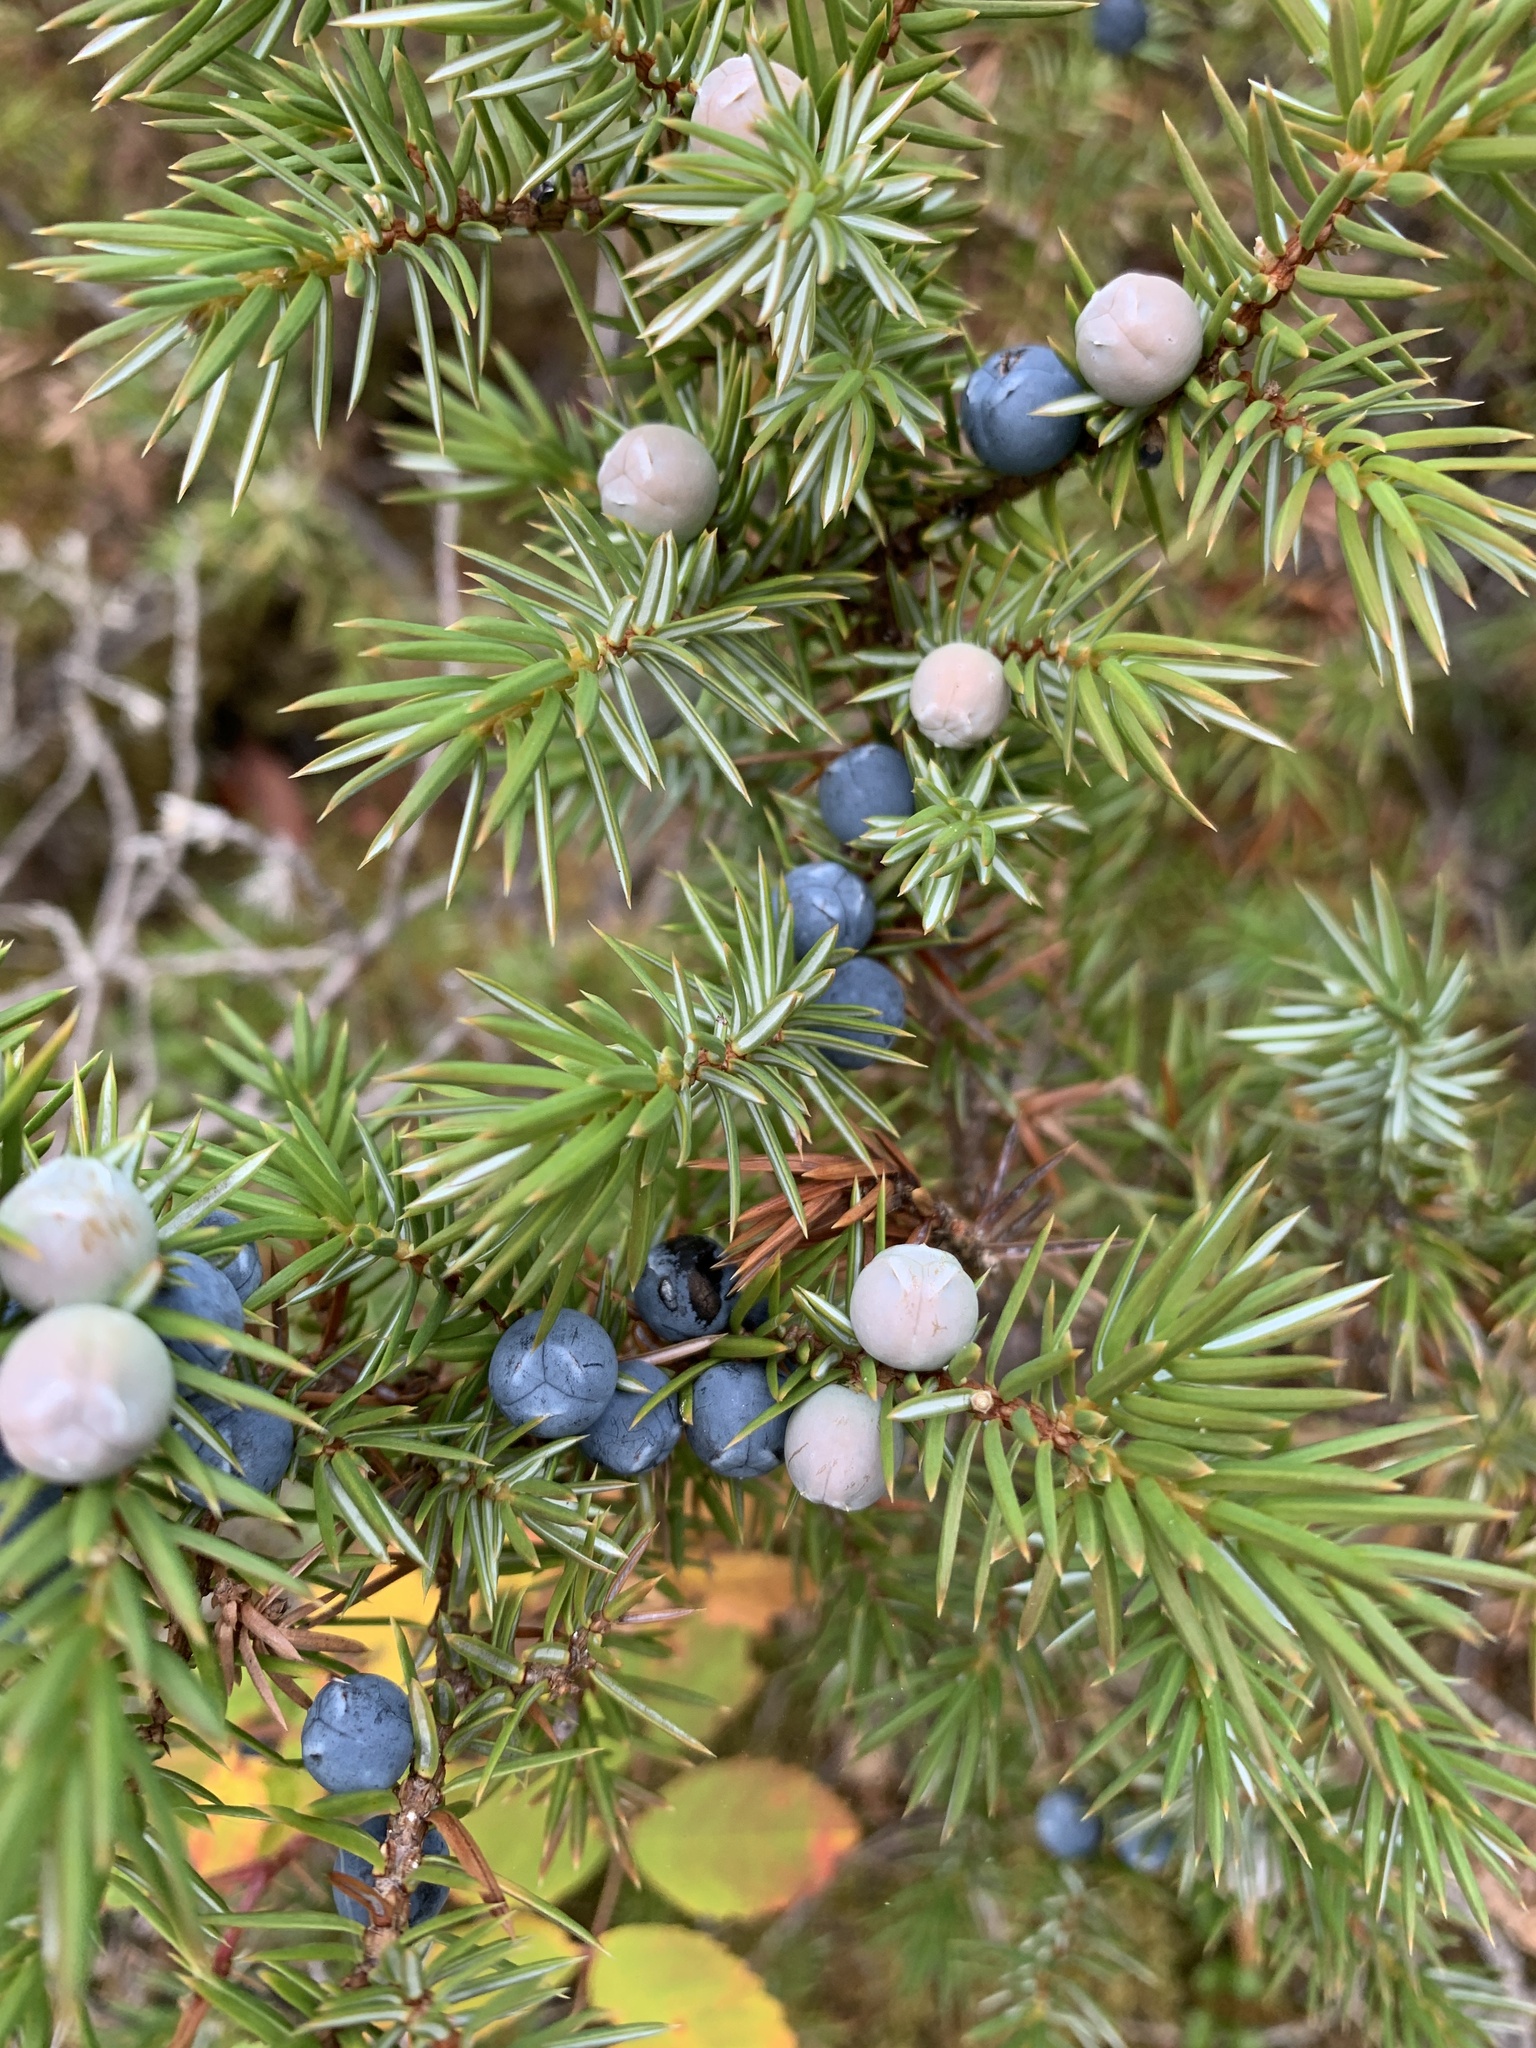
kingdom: Plantae
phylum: Tracheophyta
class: Pinopsida
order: Pinales
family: Cupressaceae
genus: Juniperus
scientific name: Juniperus communis
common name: Common juniper
